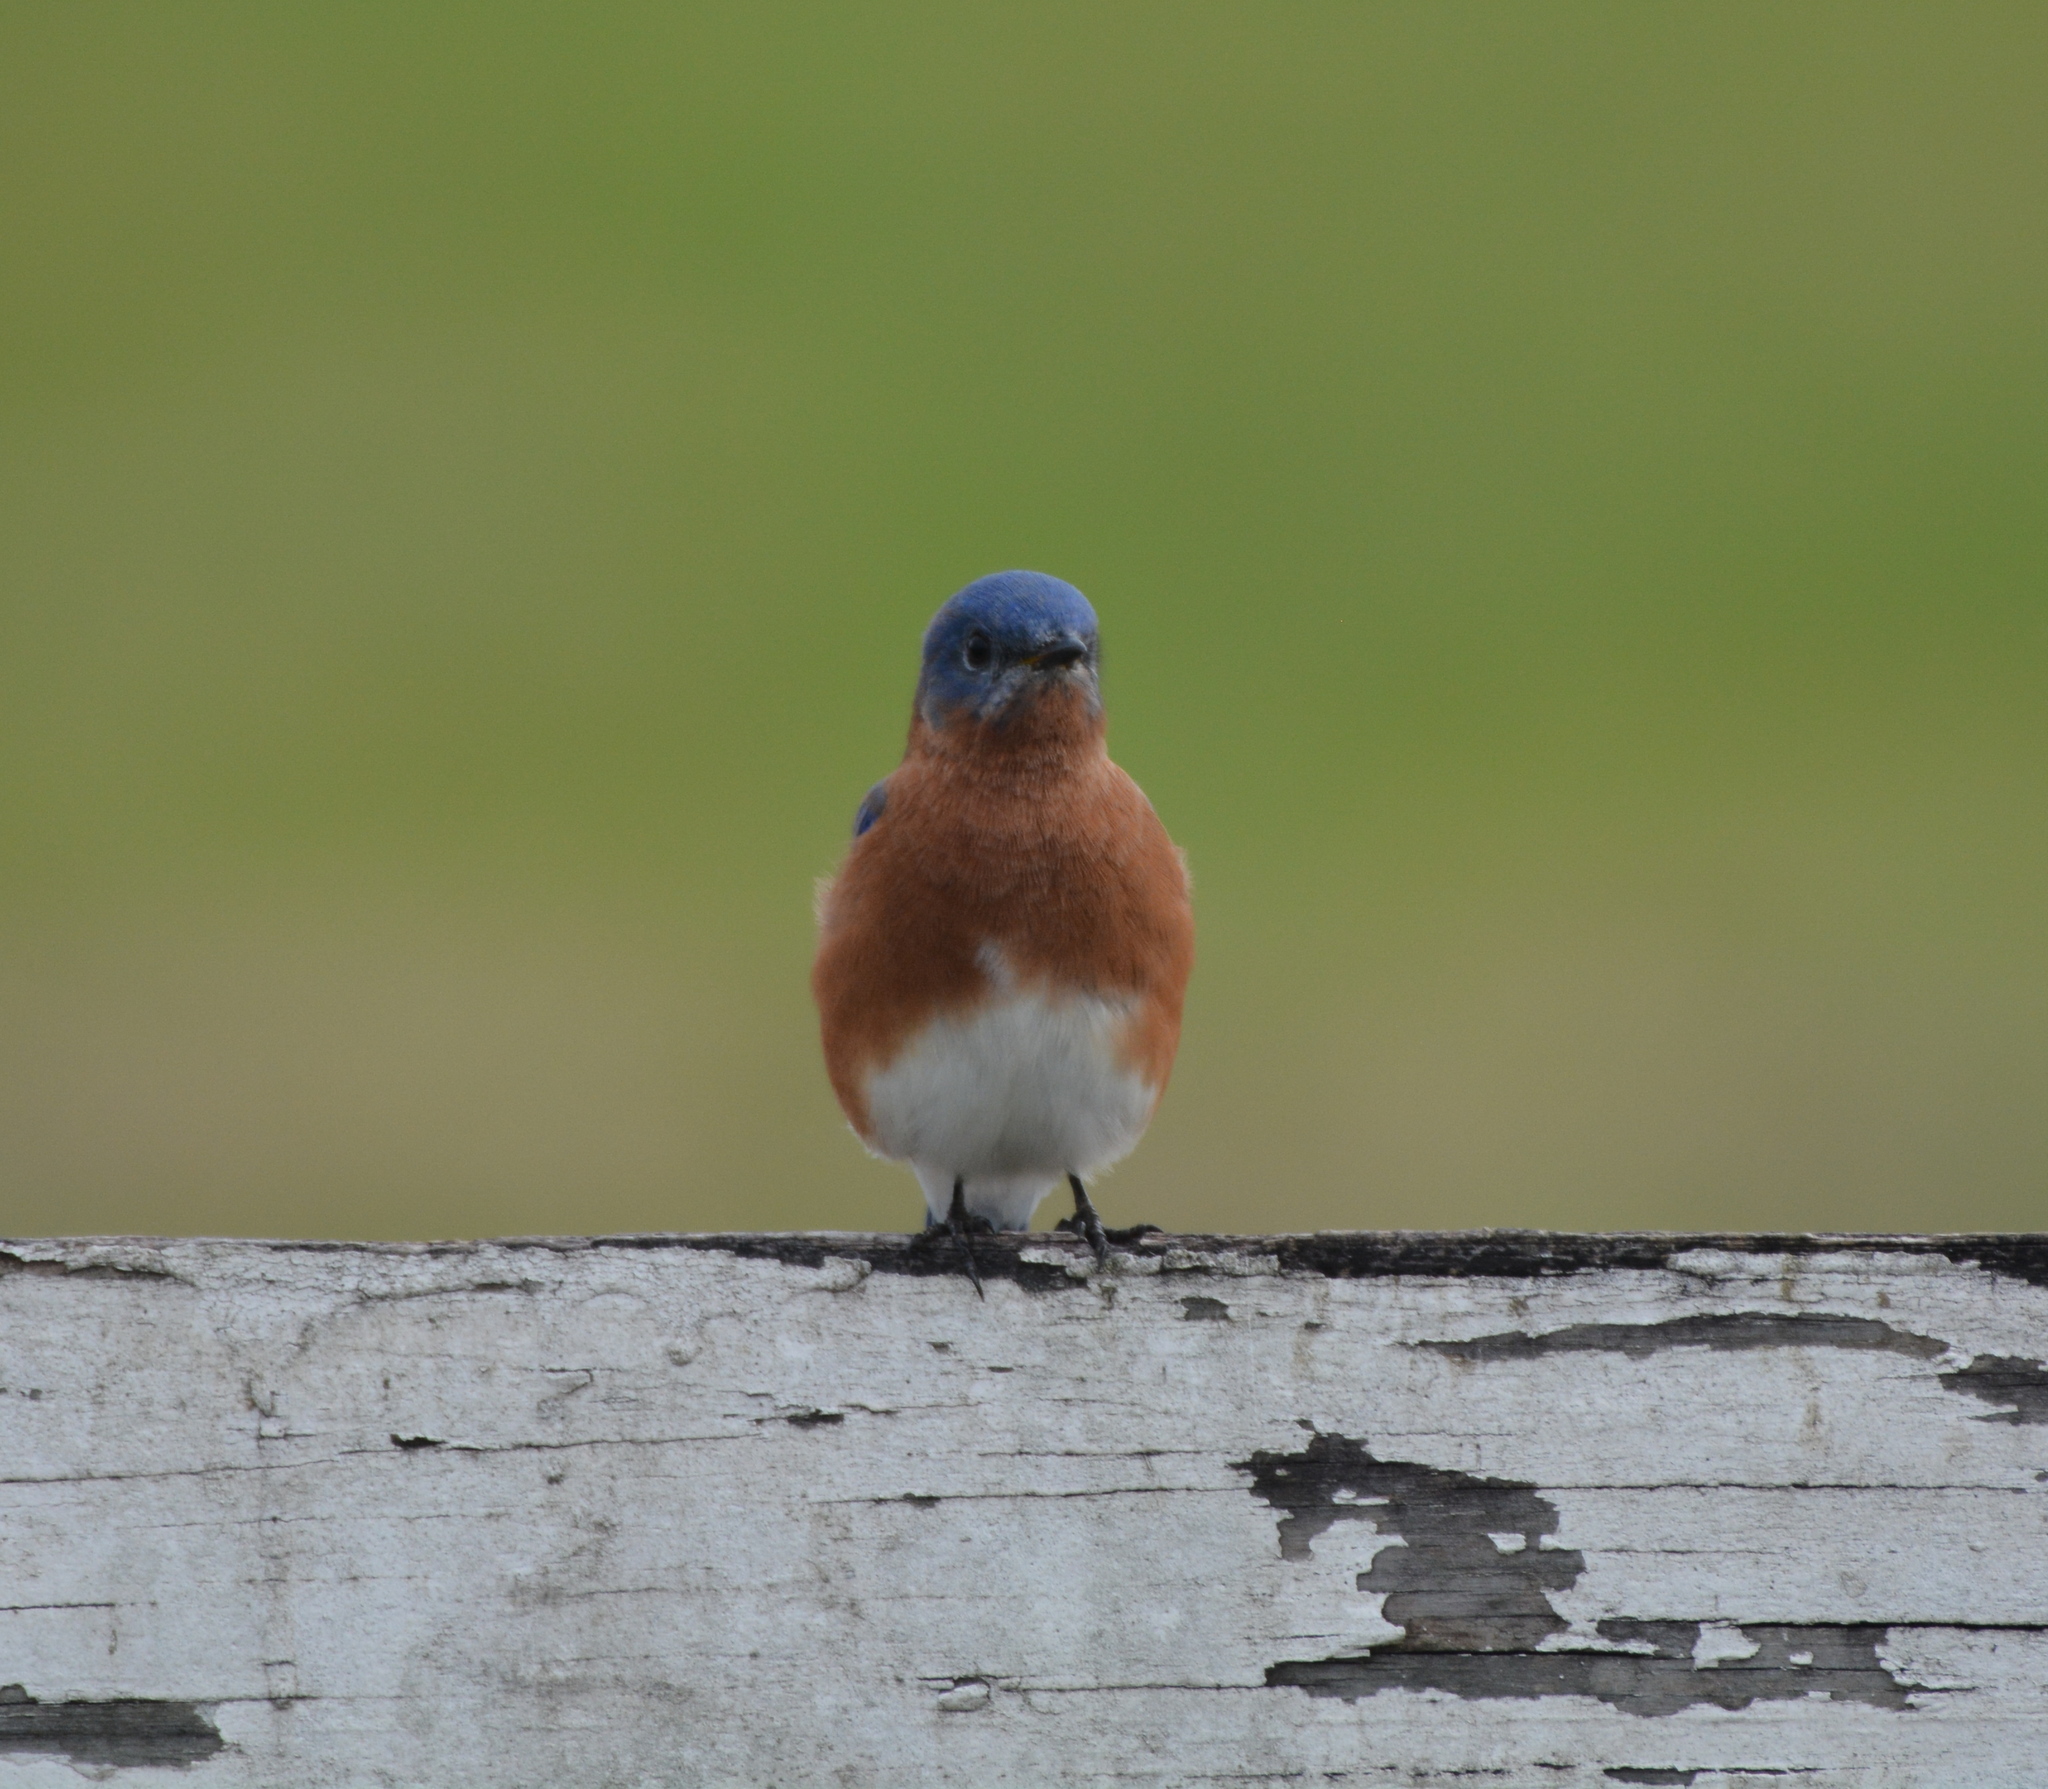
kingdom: Animalia
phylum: Chordata
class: Aves
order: Passeriformes
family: Turdidae
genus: Sialia
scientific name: Sialia sialis
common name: Eastern bluebird
